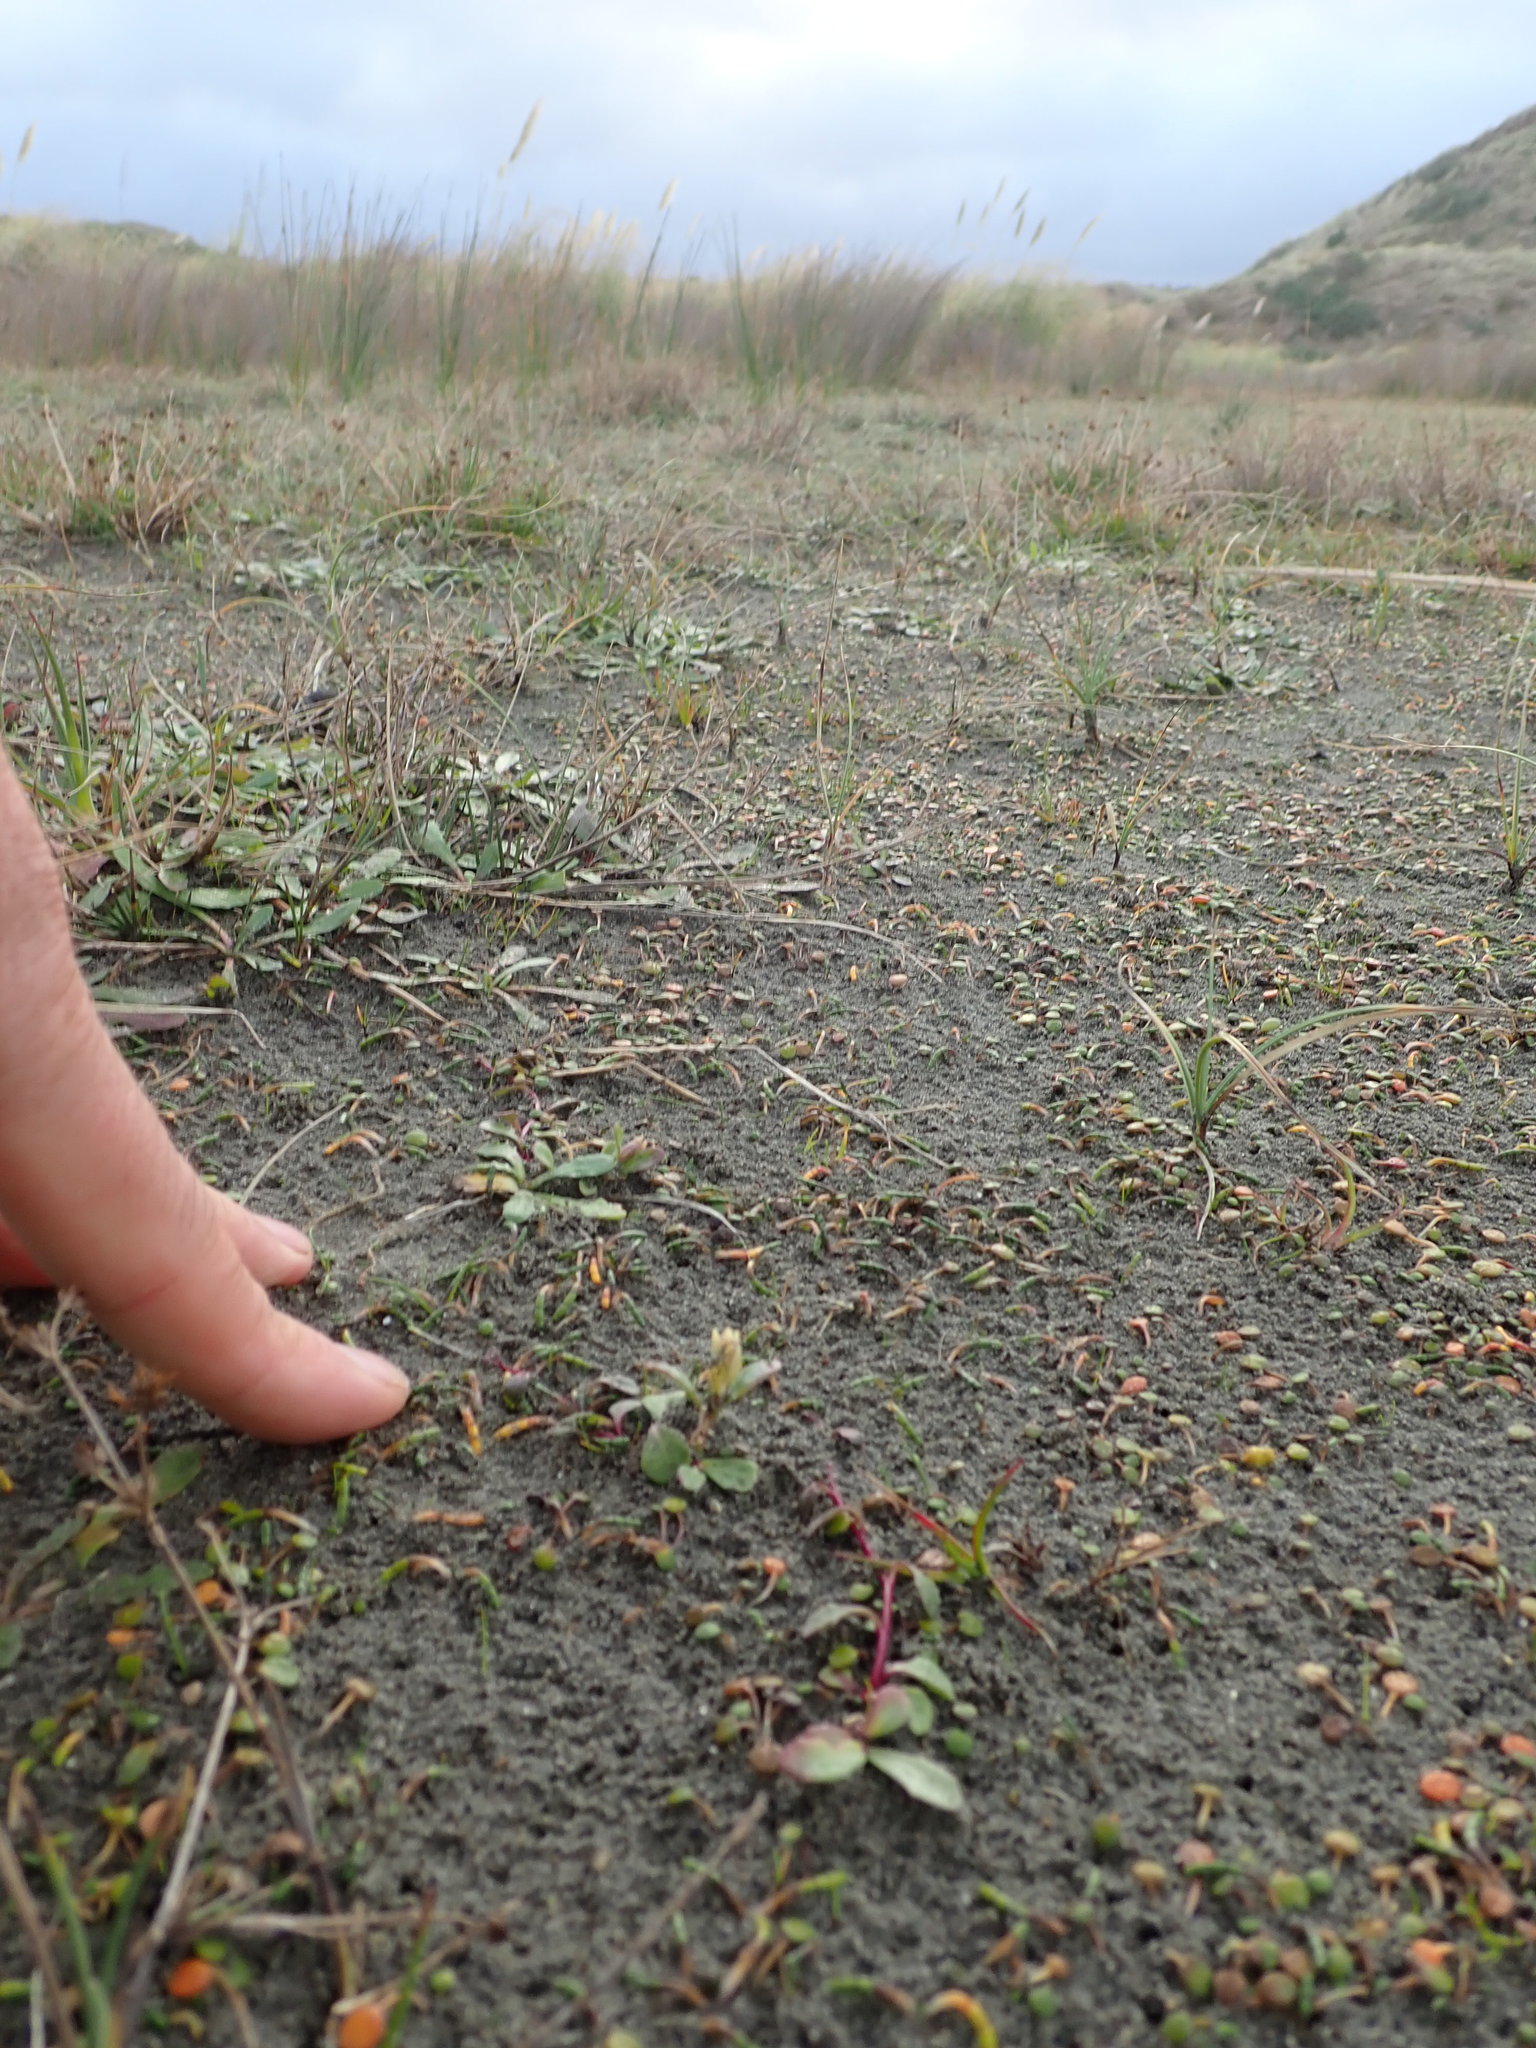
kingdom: Plantae
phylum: Tracheophyta
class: Magnoliopsida
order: Asterales
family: Campanulaceae
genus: Lobelia
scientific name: Lobelia anceps
